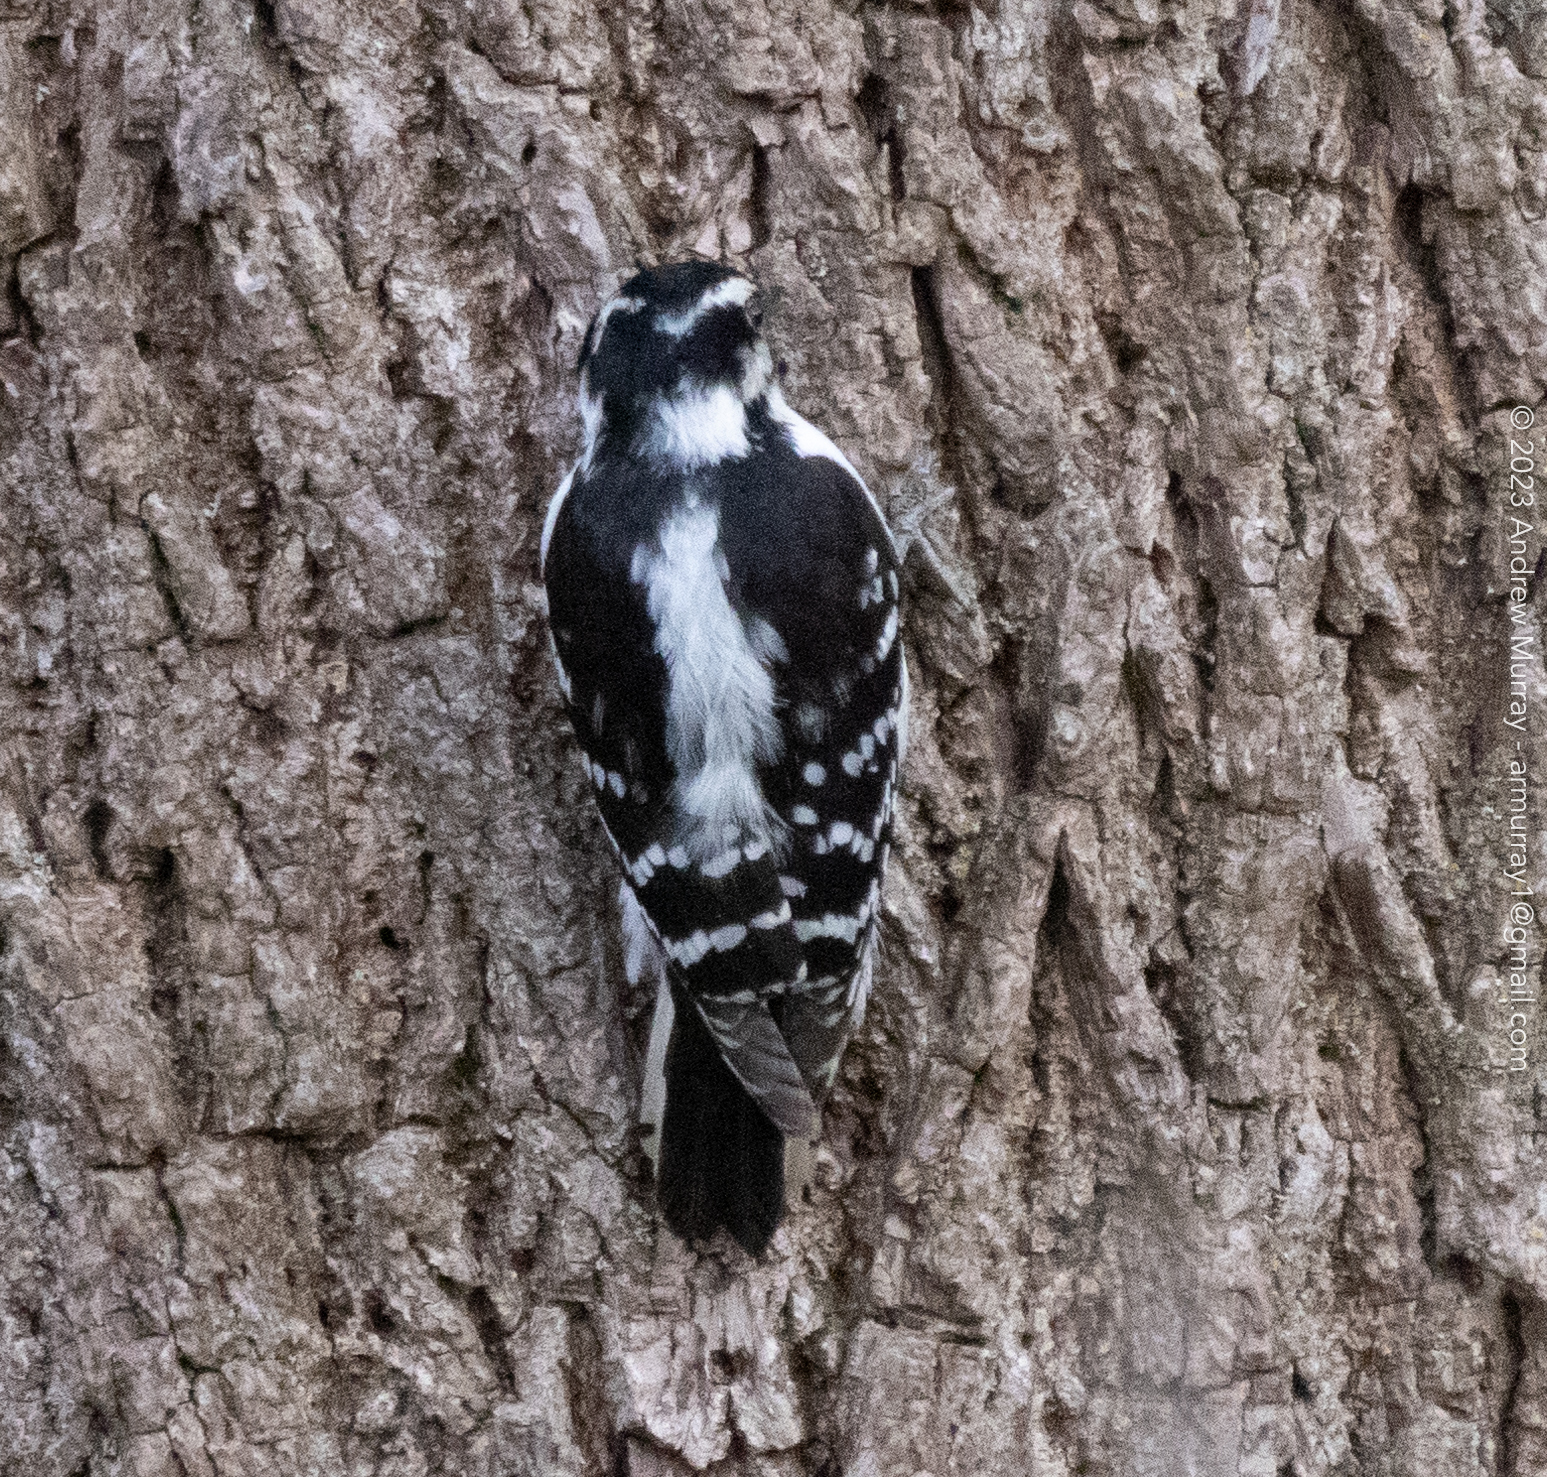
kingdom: Animalia
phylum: Chordata
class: Aves
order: Piciformes
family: Picidae
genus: Dryobates
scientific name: Dryobates pubescens
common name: Downy woodpecker
